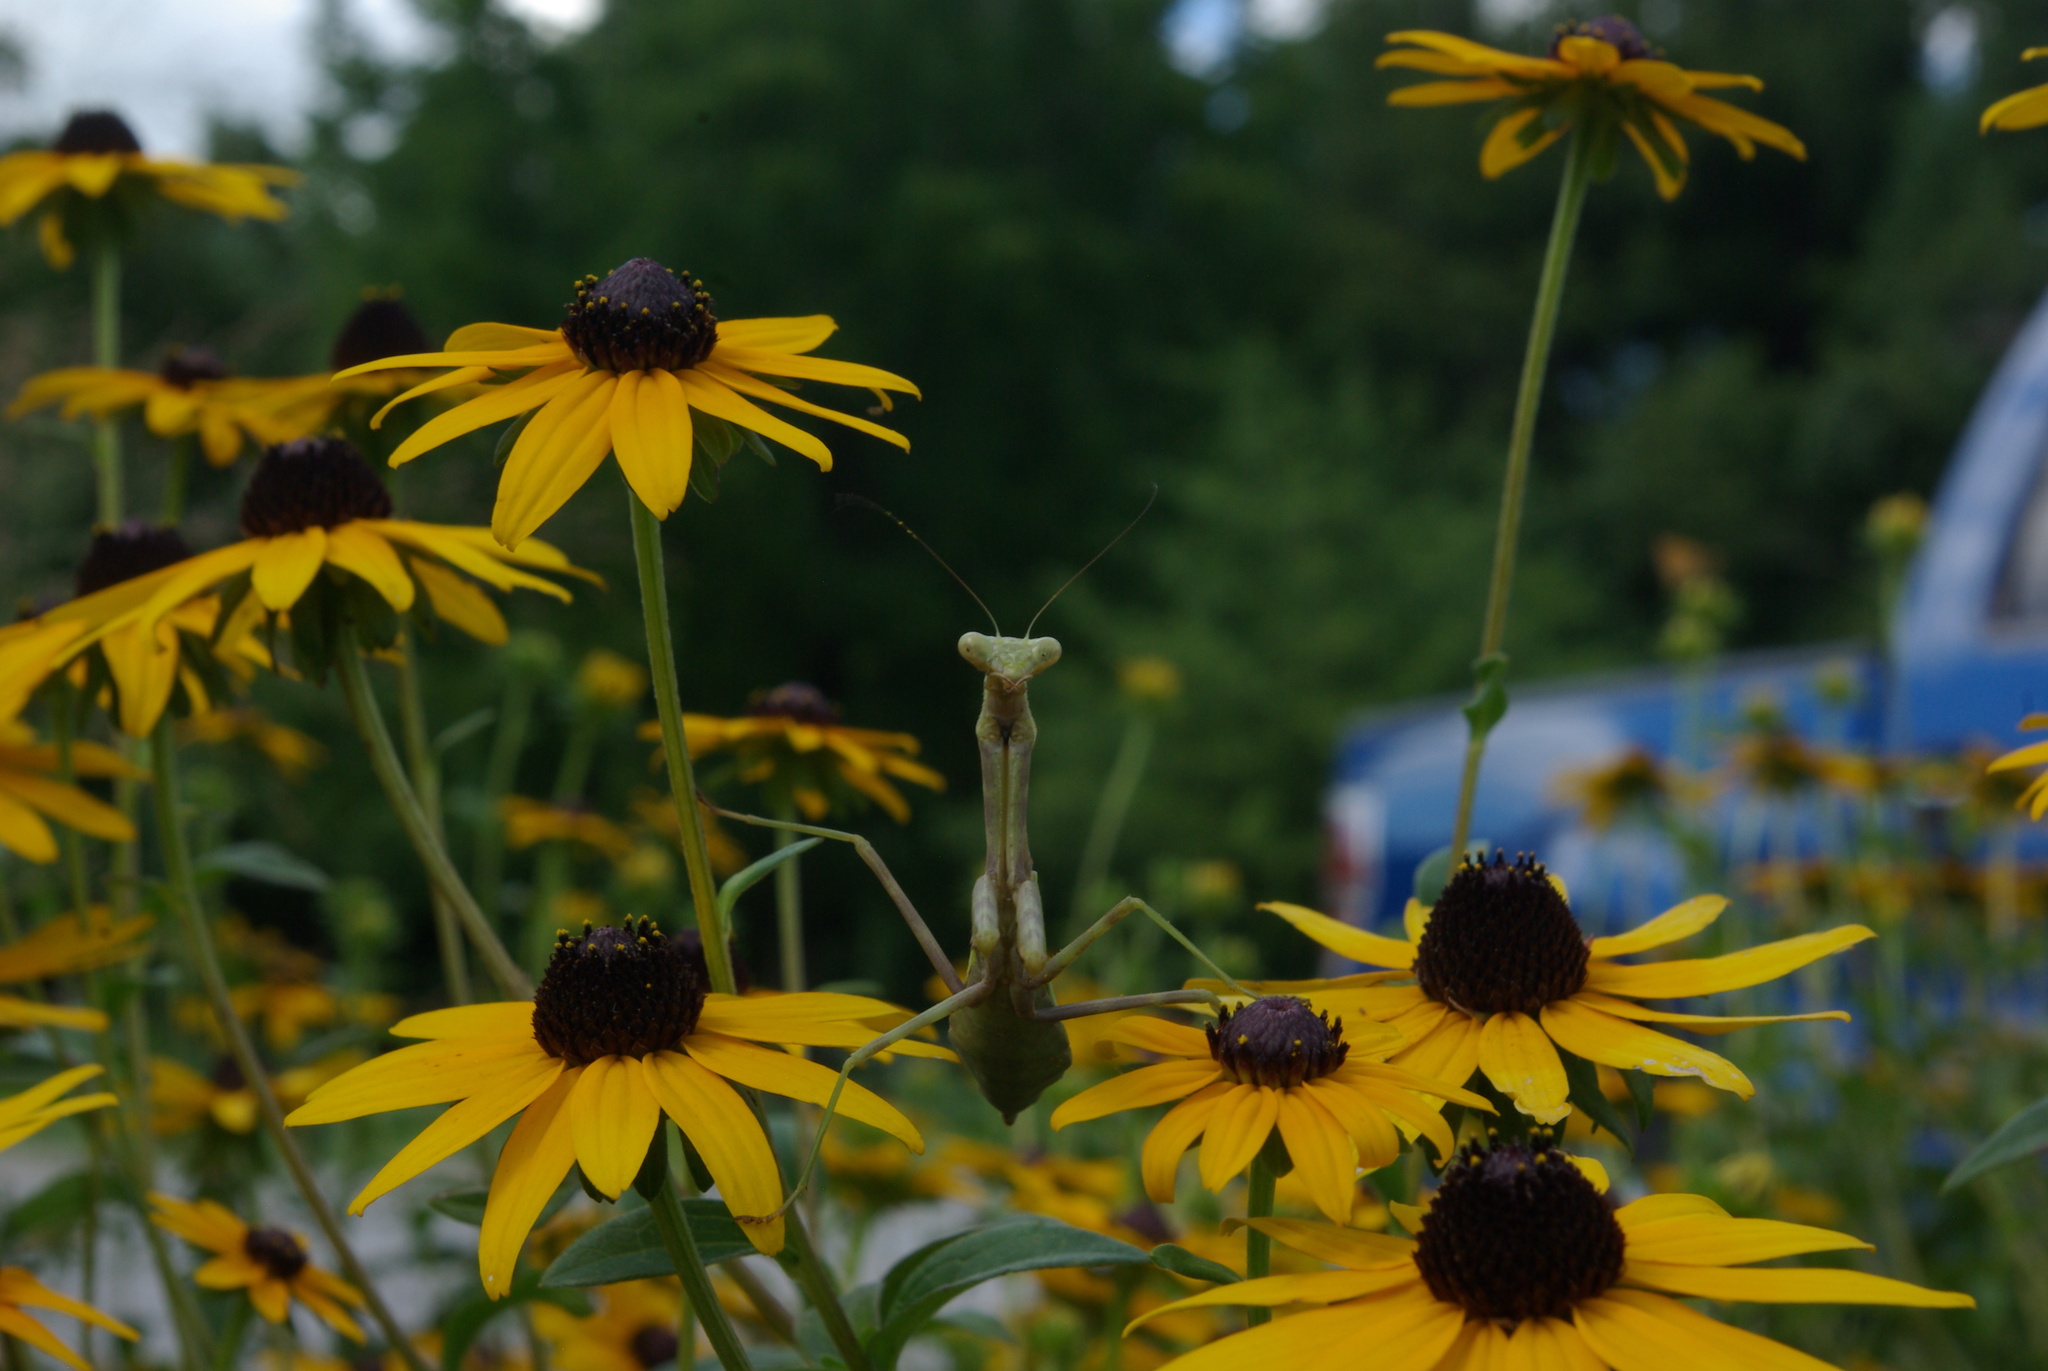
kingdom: Animalia
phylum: Arthropoda
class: Insecta
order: Mantodea
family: Mantidae
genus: Stagmomantis
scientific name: Stagmomantis carolina
